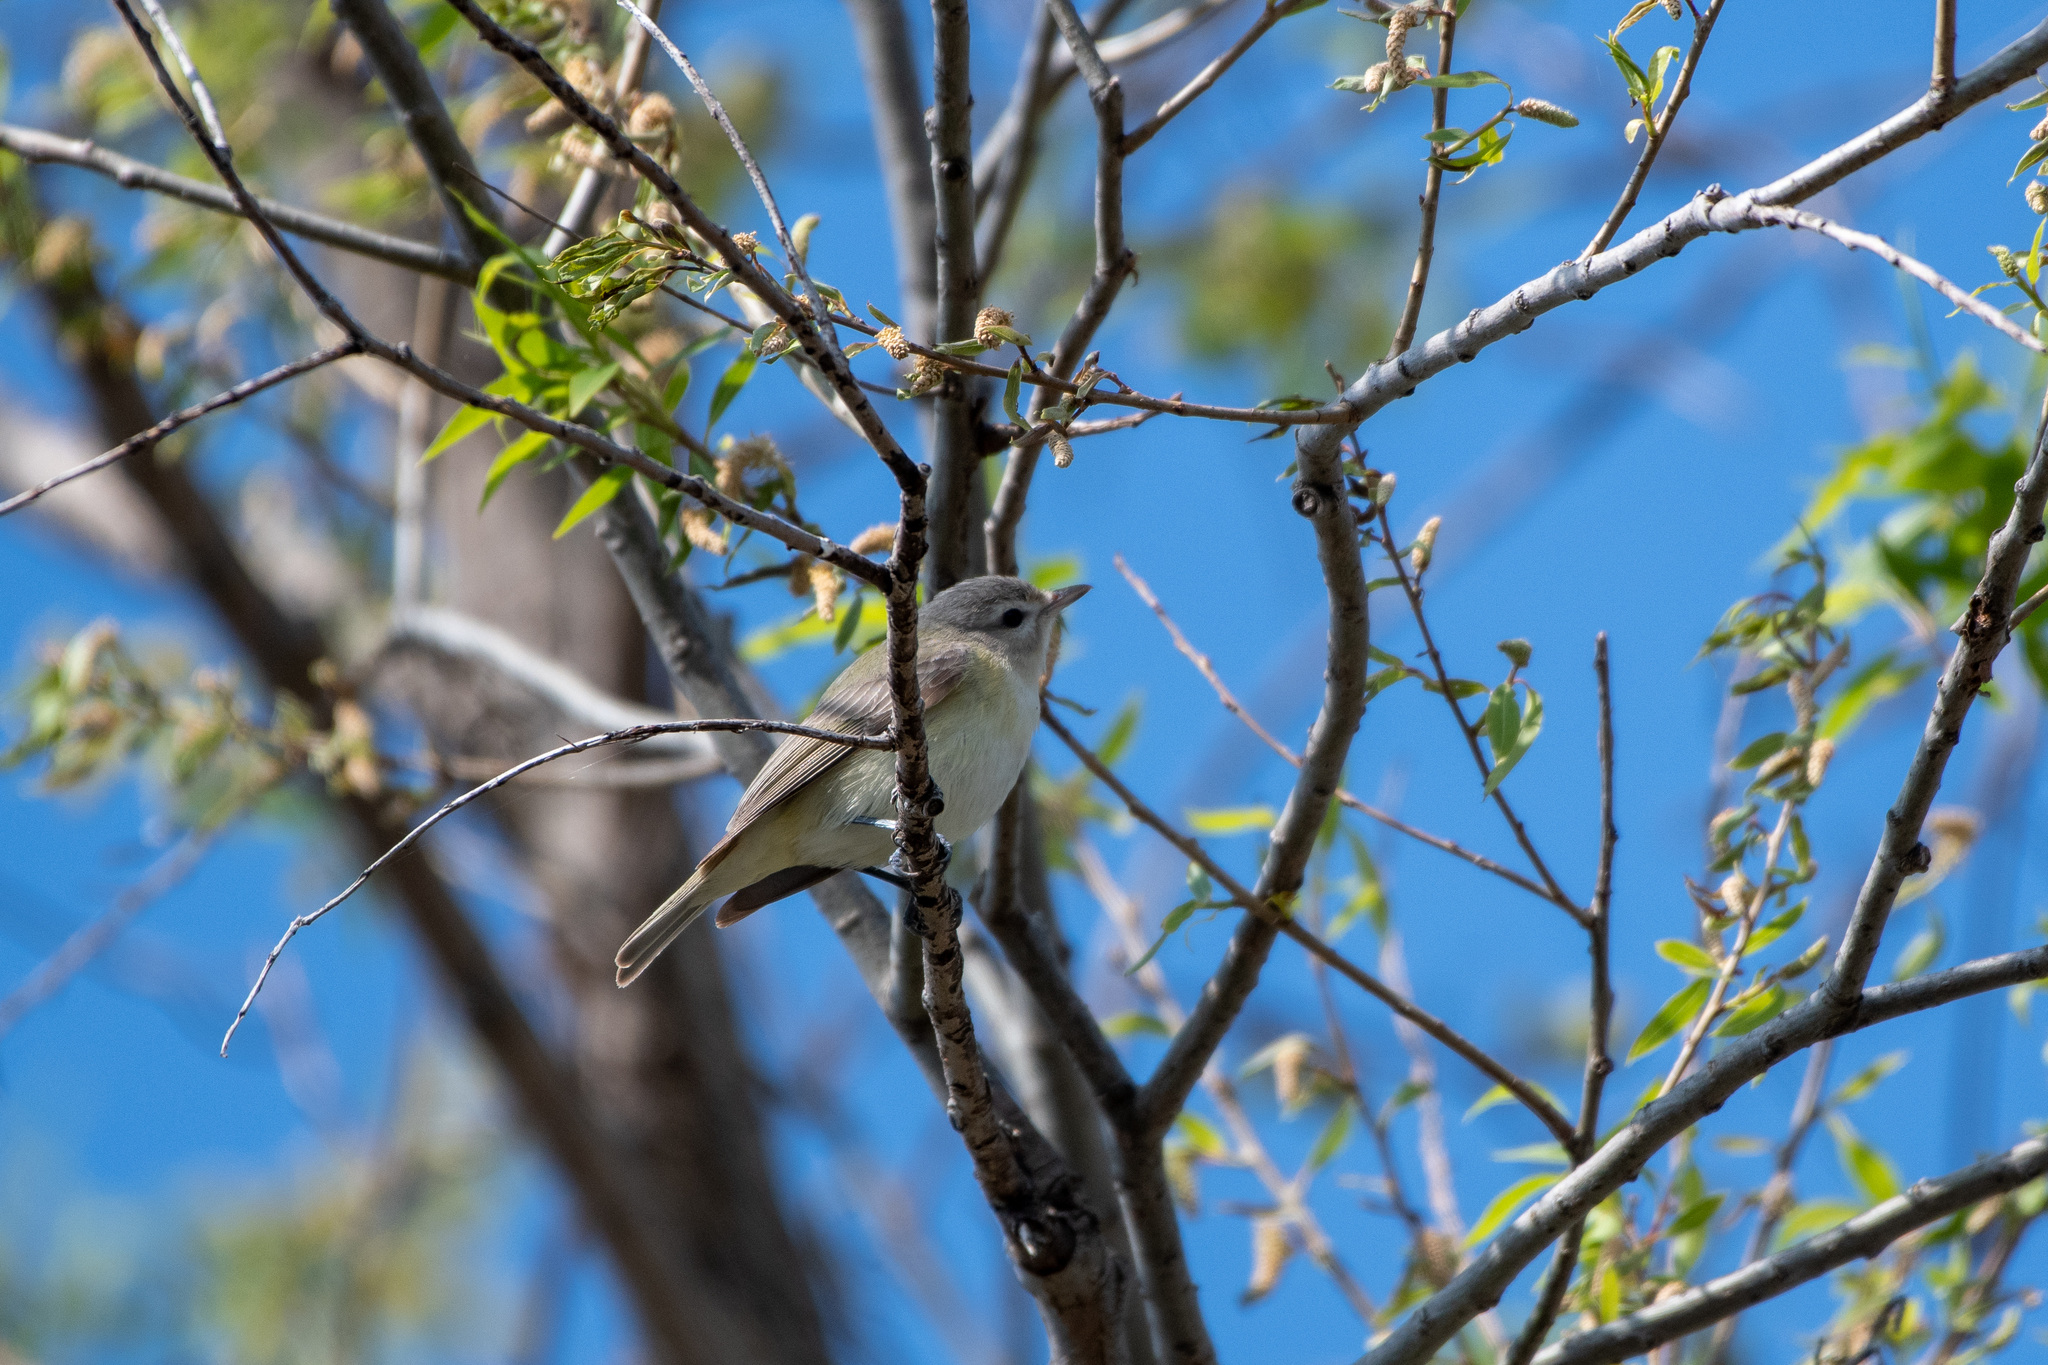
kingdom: Animalia
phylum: Chordata
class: Aves
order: Passeriformes
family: Vireonidae
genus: Vireo
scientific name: Vireo gilvus
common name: Warbling vireo
